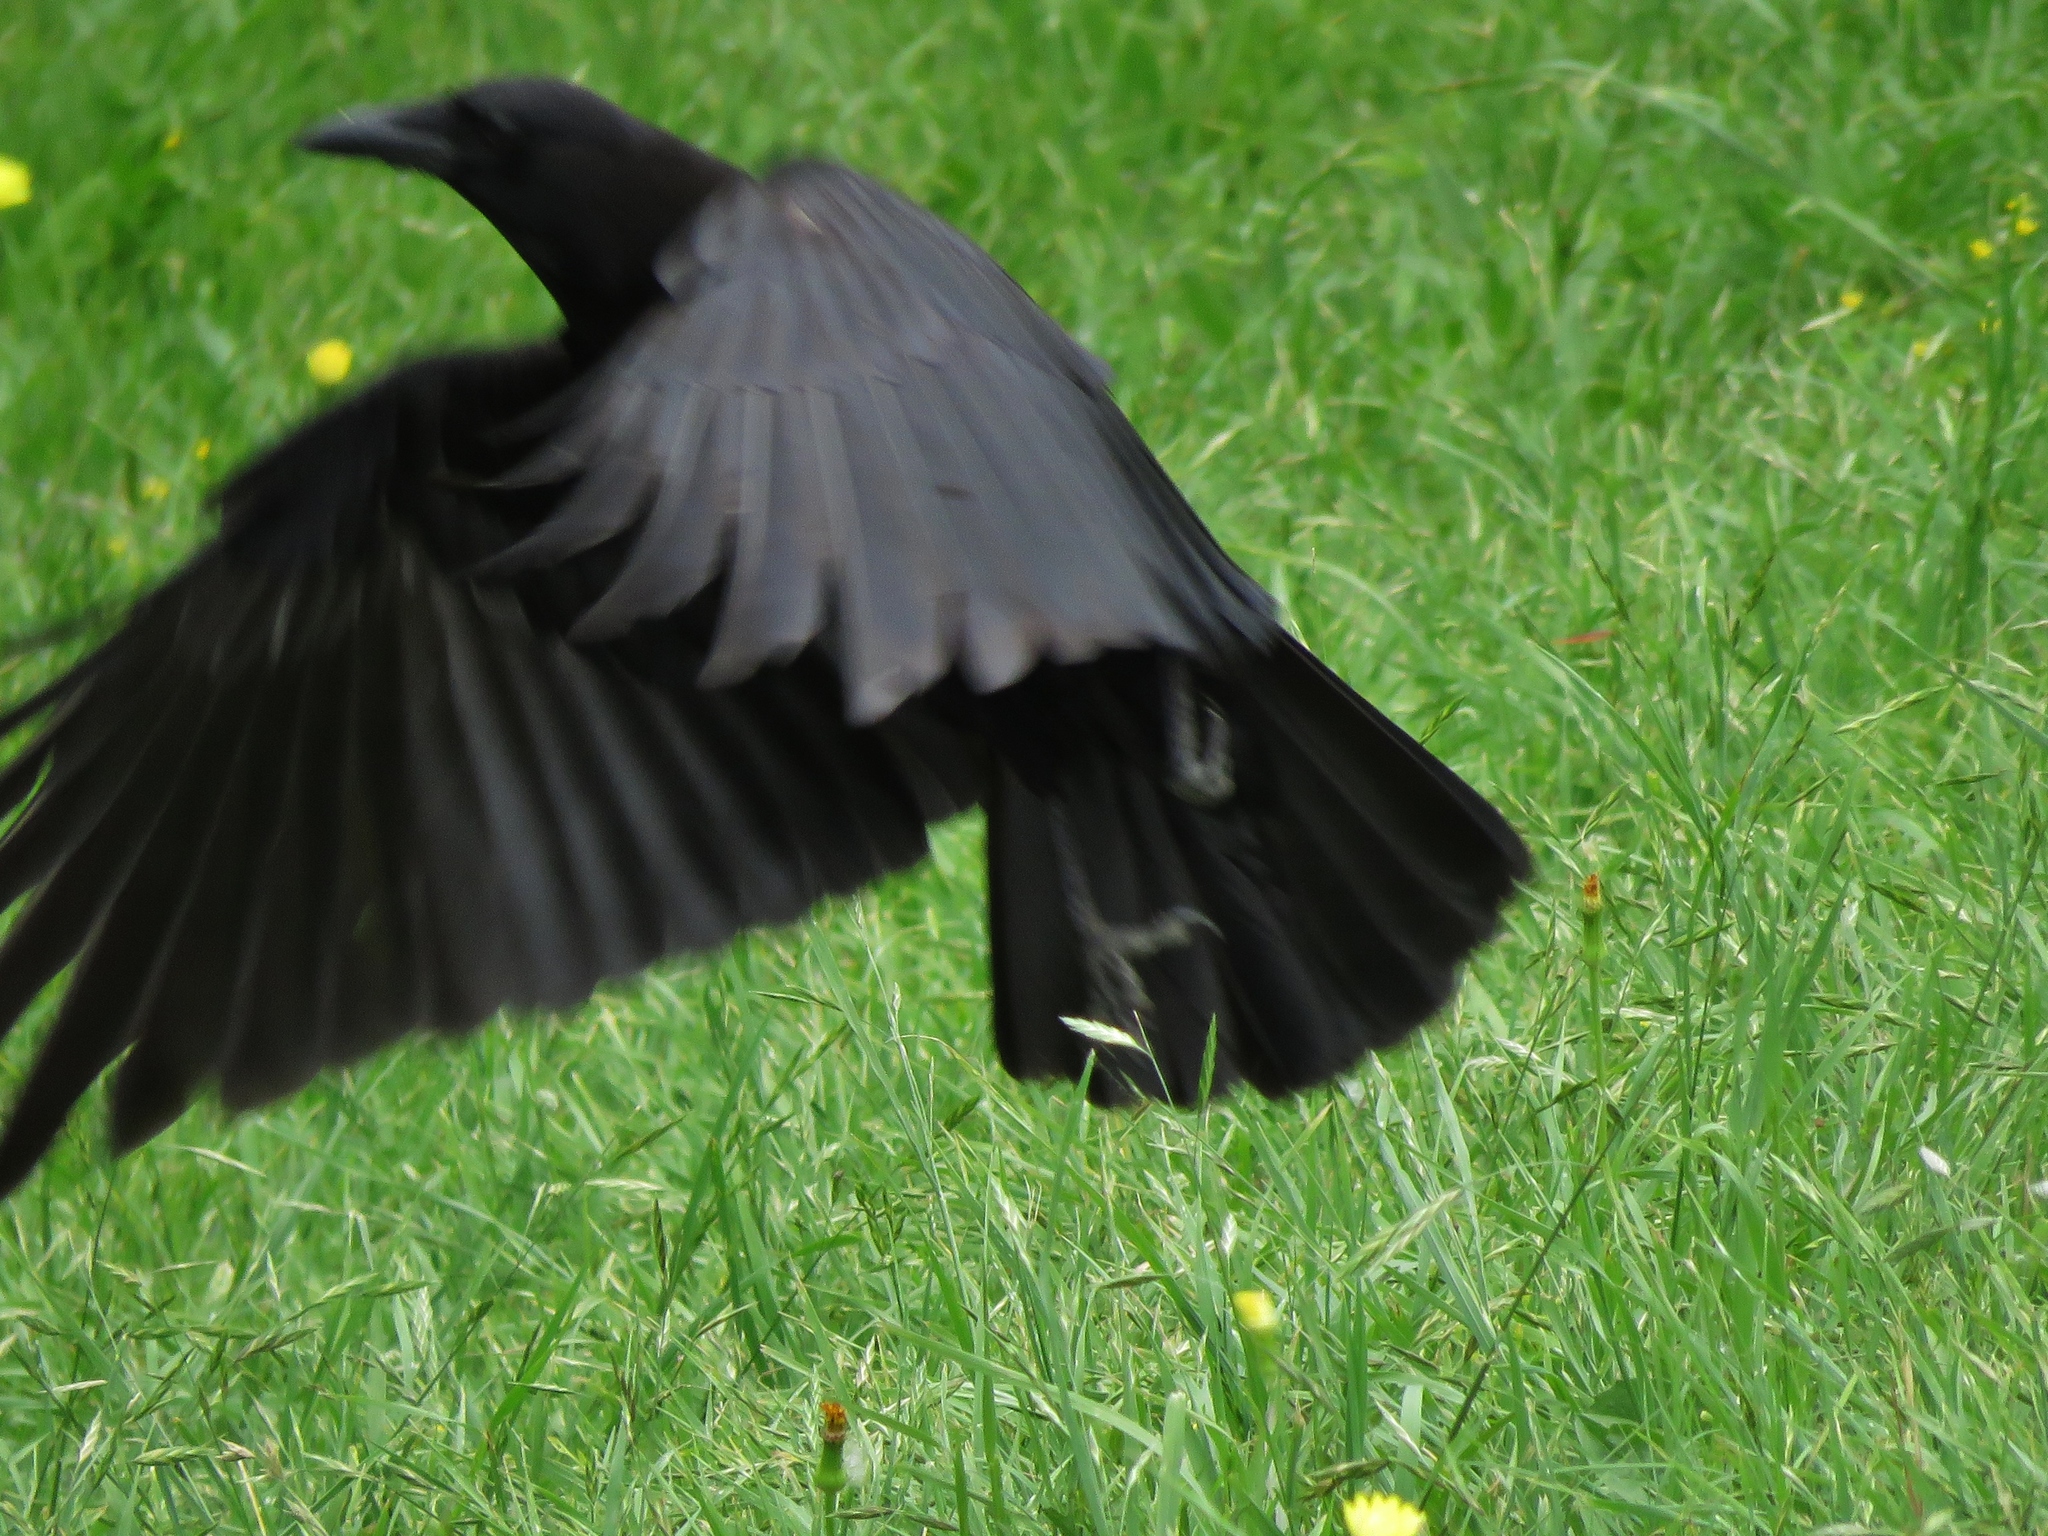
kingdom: Animalia
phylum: Chordata
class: Aves
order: Passeriformes
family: Corvidae
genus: Corvus
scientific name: Corvus brachyrhynchos
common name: American crow
